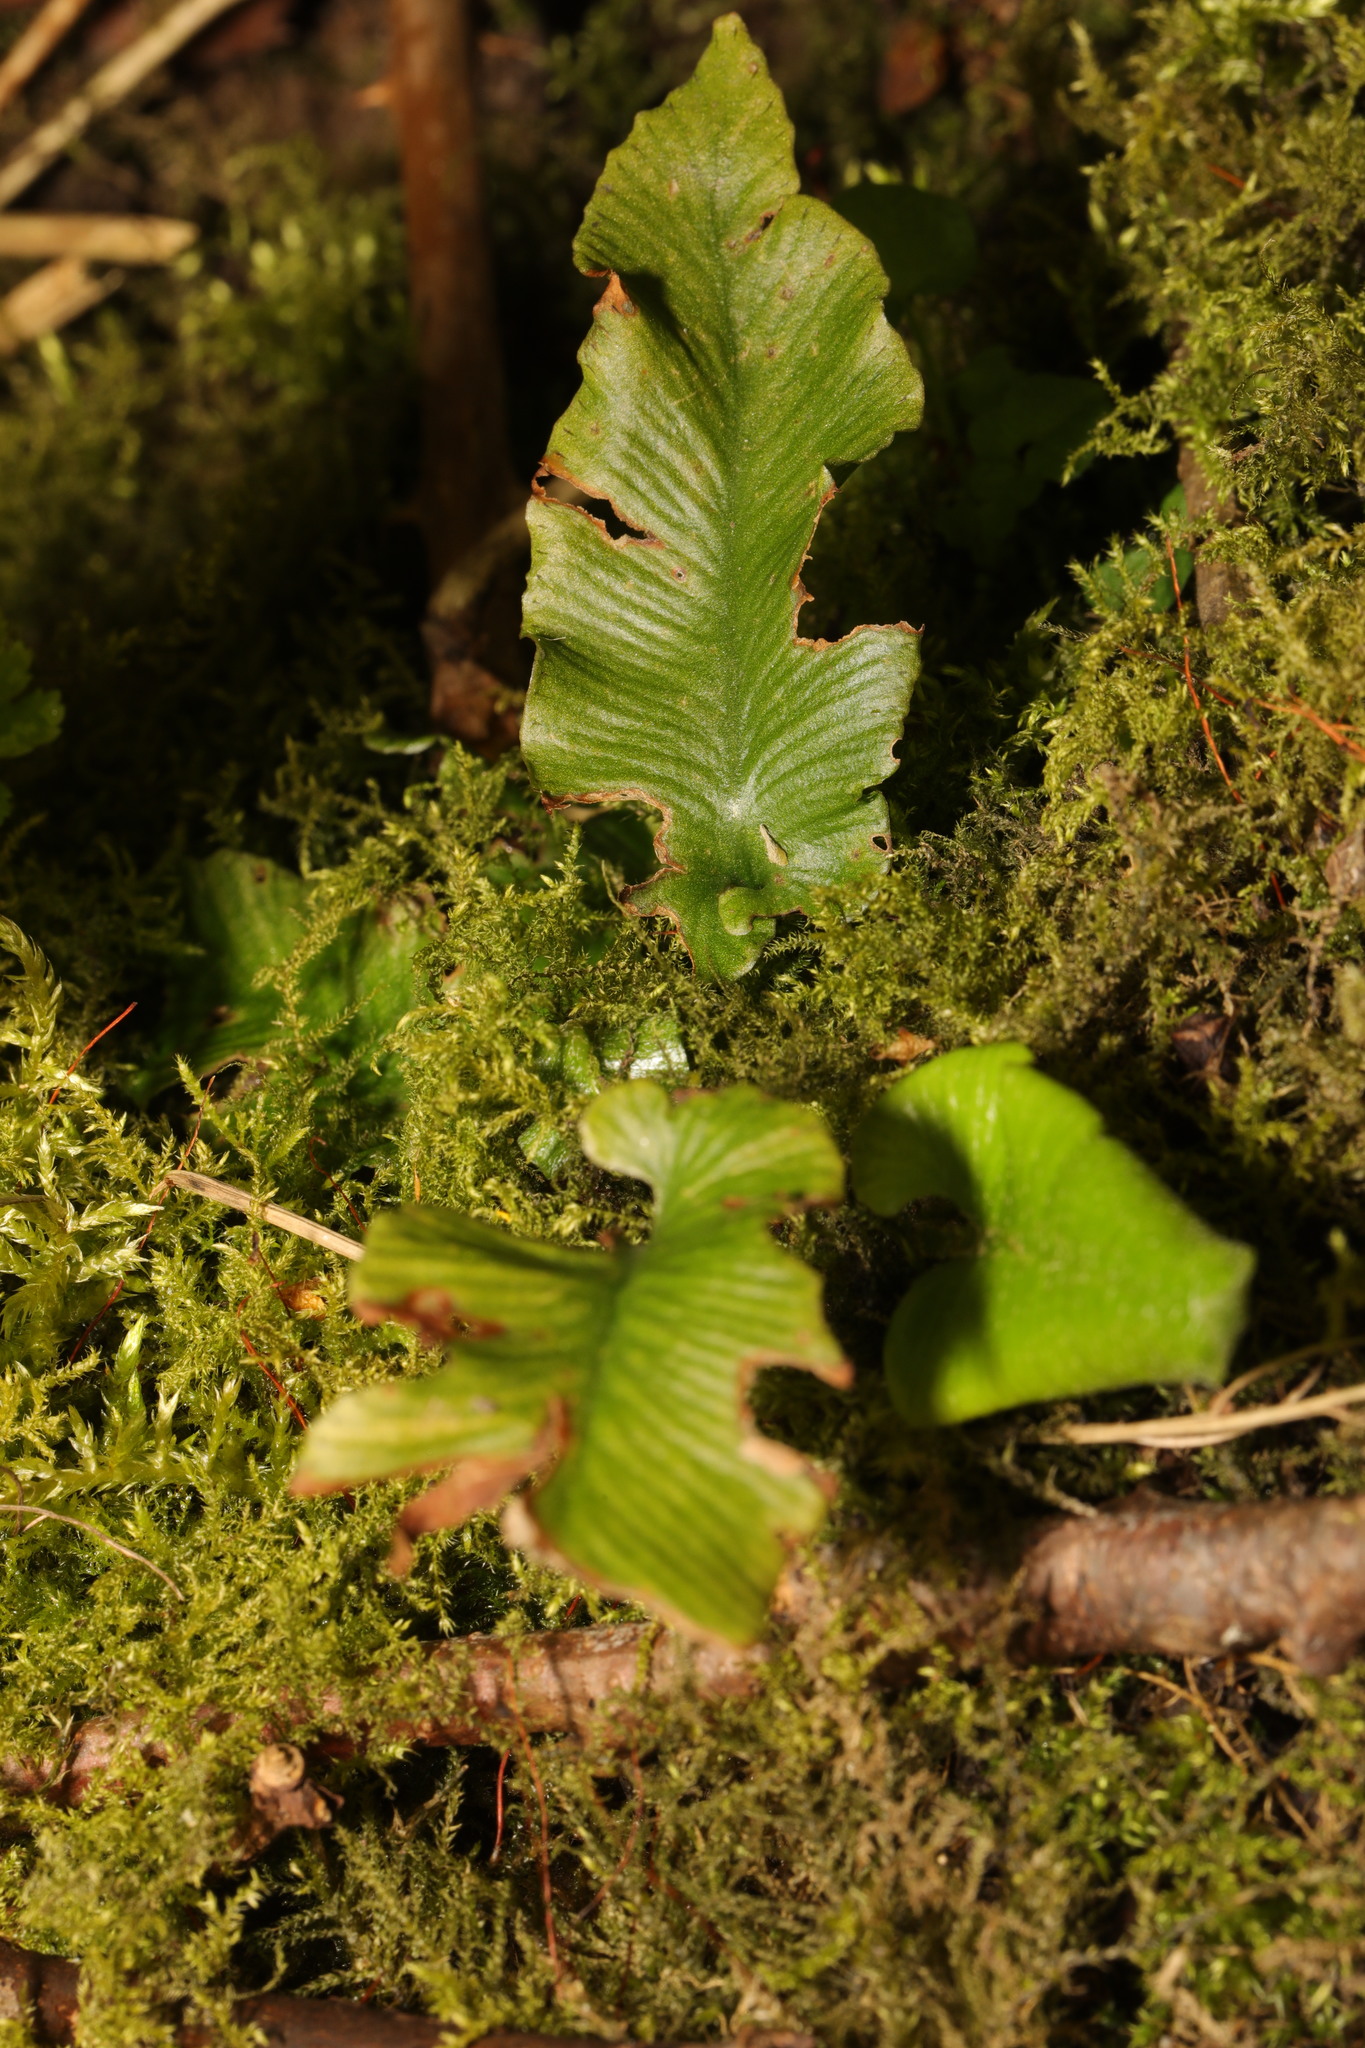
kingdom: Plantae
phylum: Tracheophyta
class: Polypodiopsida
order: Polypodiales
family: Aspleniaceae
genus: Asplenium
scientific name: Asplenium scolopendrium
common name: Hart's-tongue fern
